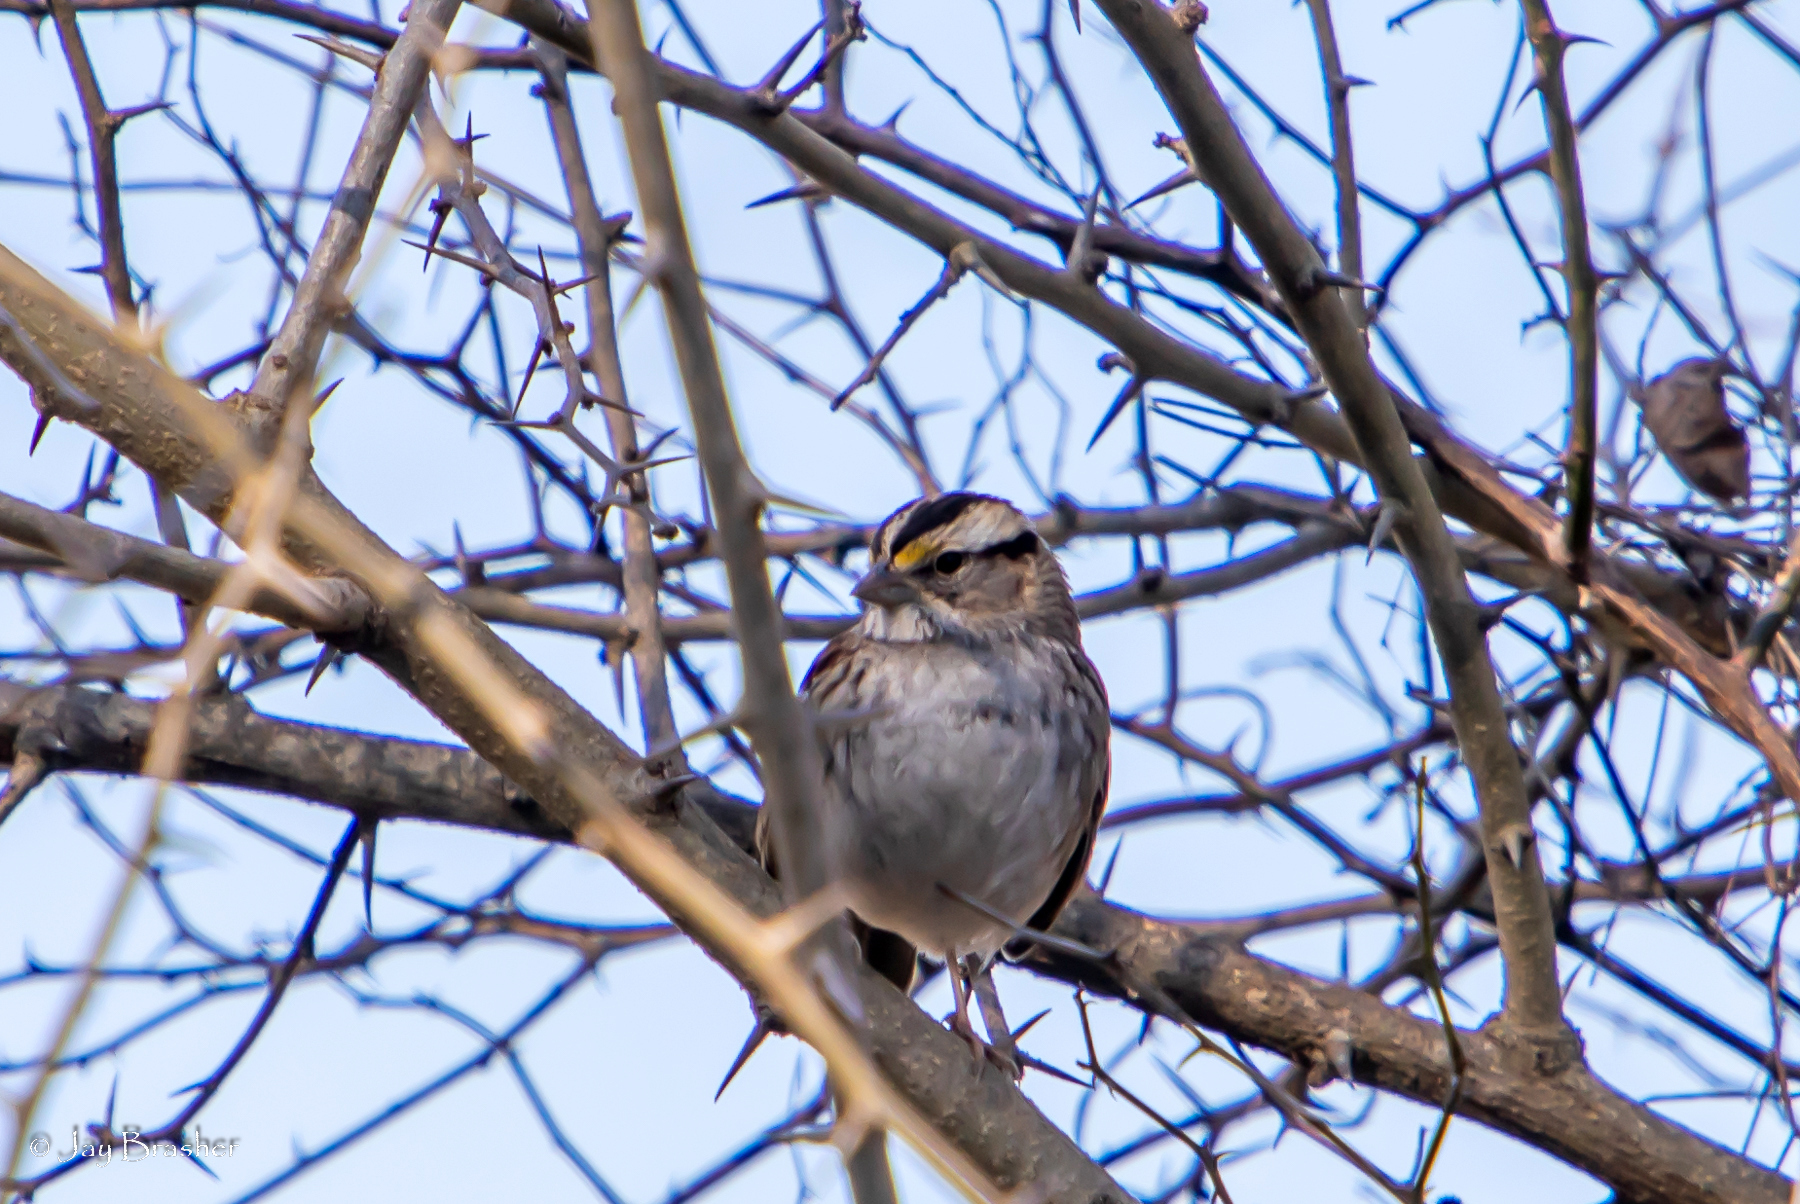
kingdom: Animalia
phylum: Chordata
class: Aves
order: Passeriformes
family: Passerellidae
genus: Zonotrichia
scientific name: Zonotrichia albicollis
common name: White-throated sparrow
